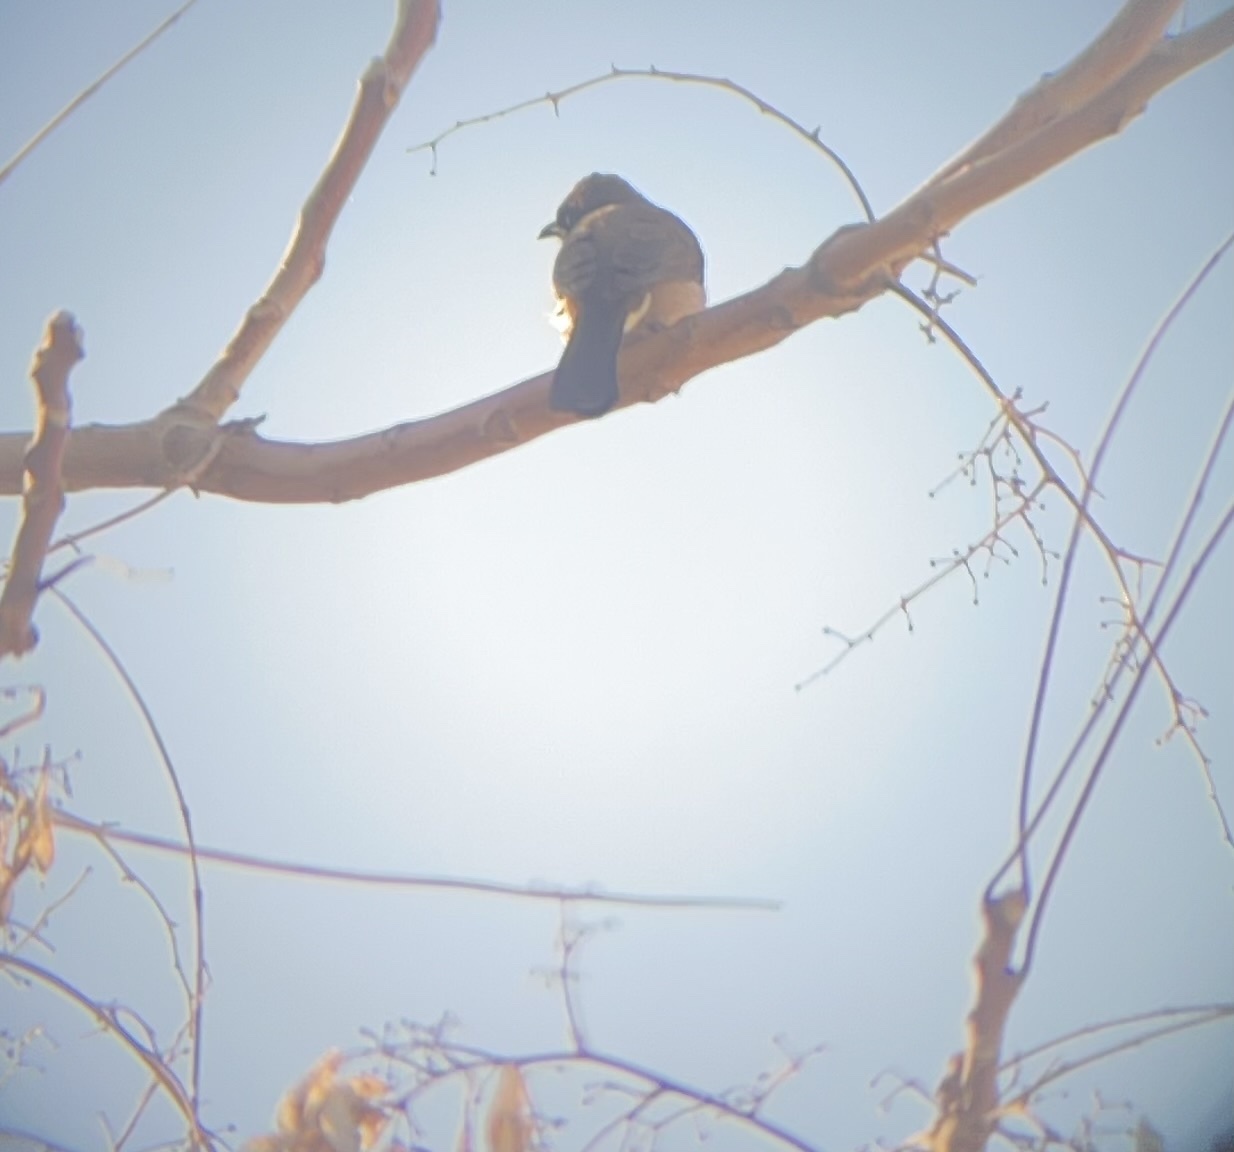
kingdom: Animalia
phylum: Chordata
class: Aves
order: Passeriformes
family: Pycnonotidae
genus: Pycnonotus
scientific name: Pycnonotus barbatus
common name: Common bulbul
